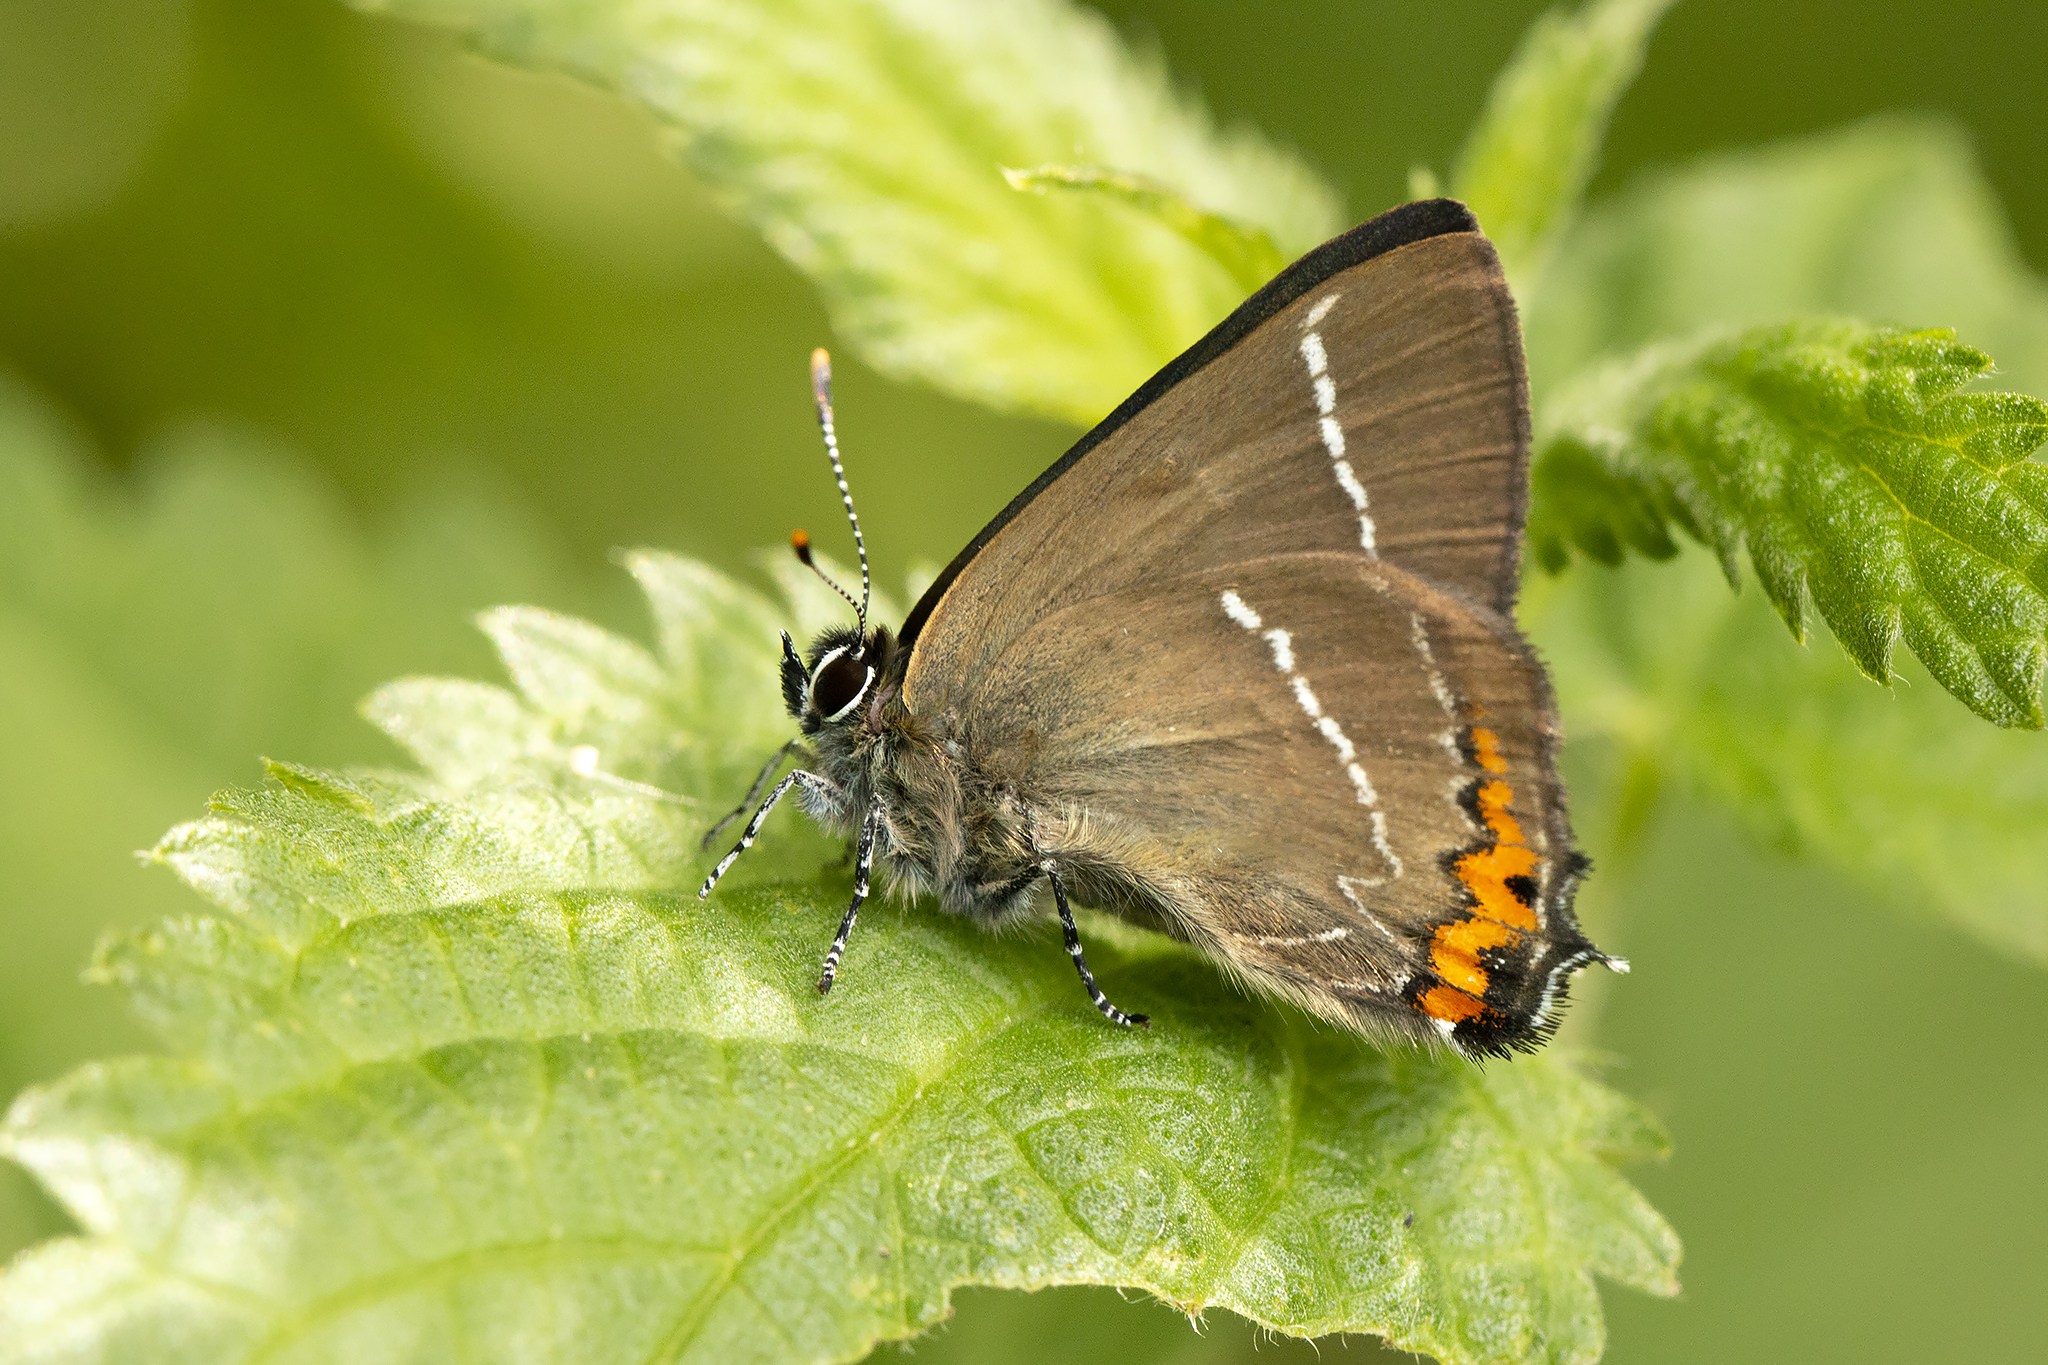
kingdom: Animalia
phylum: Arthropoda
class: Insecta
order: Lepidoptera
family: Lycaenidae
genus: Satyrium
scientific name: Satyrium w-album
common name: White-letter hairstreak
